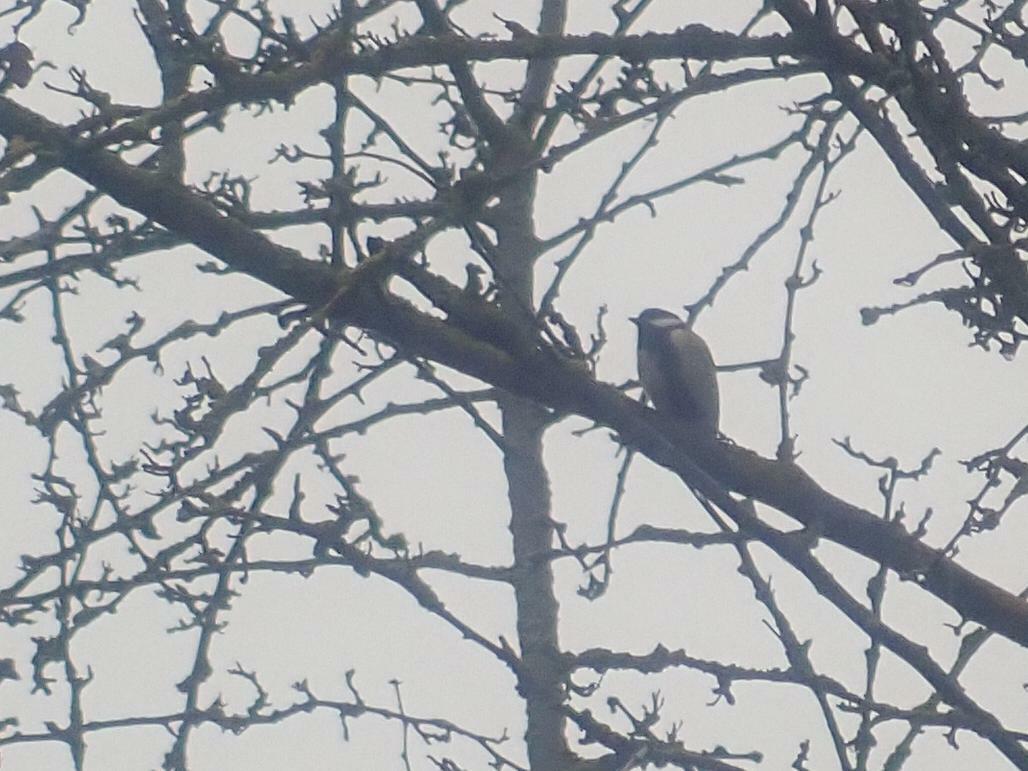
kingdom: Animalia
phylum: Chordata
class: Aves
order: Passeriformes
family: Paridae
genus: Parus
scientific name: Parus major
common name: Great tit
